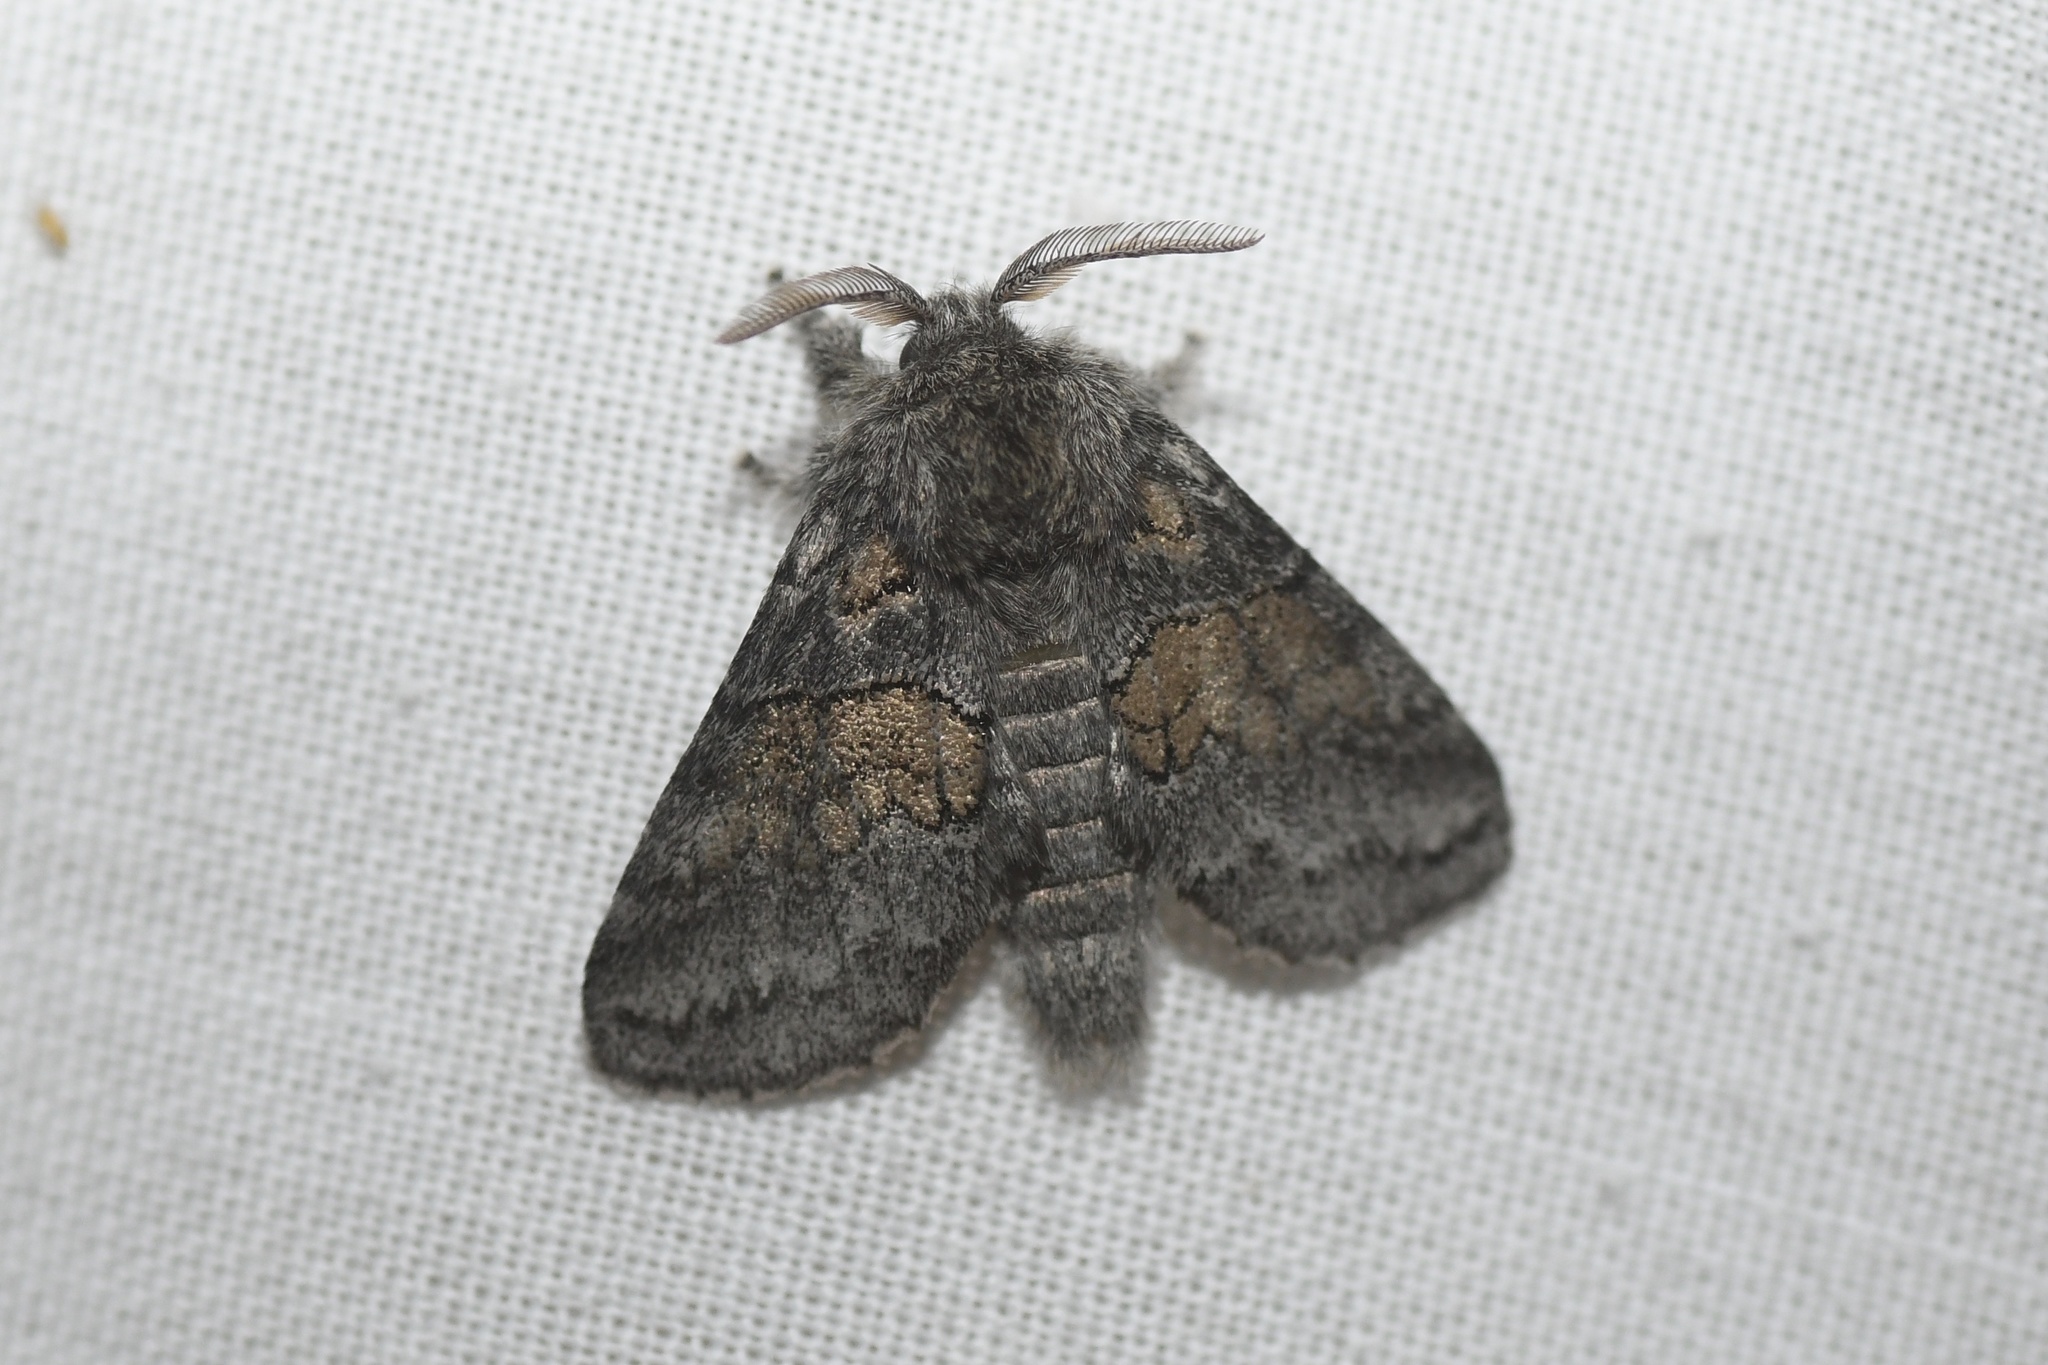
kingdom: Animalia
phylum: Arthropoda
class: Insecta
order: Lepidoptera
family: Notodontidae
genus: Gluphisia
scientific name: Gluphisia septentrionis
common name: Common gluphisia
